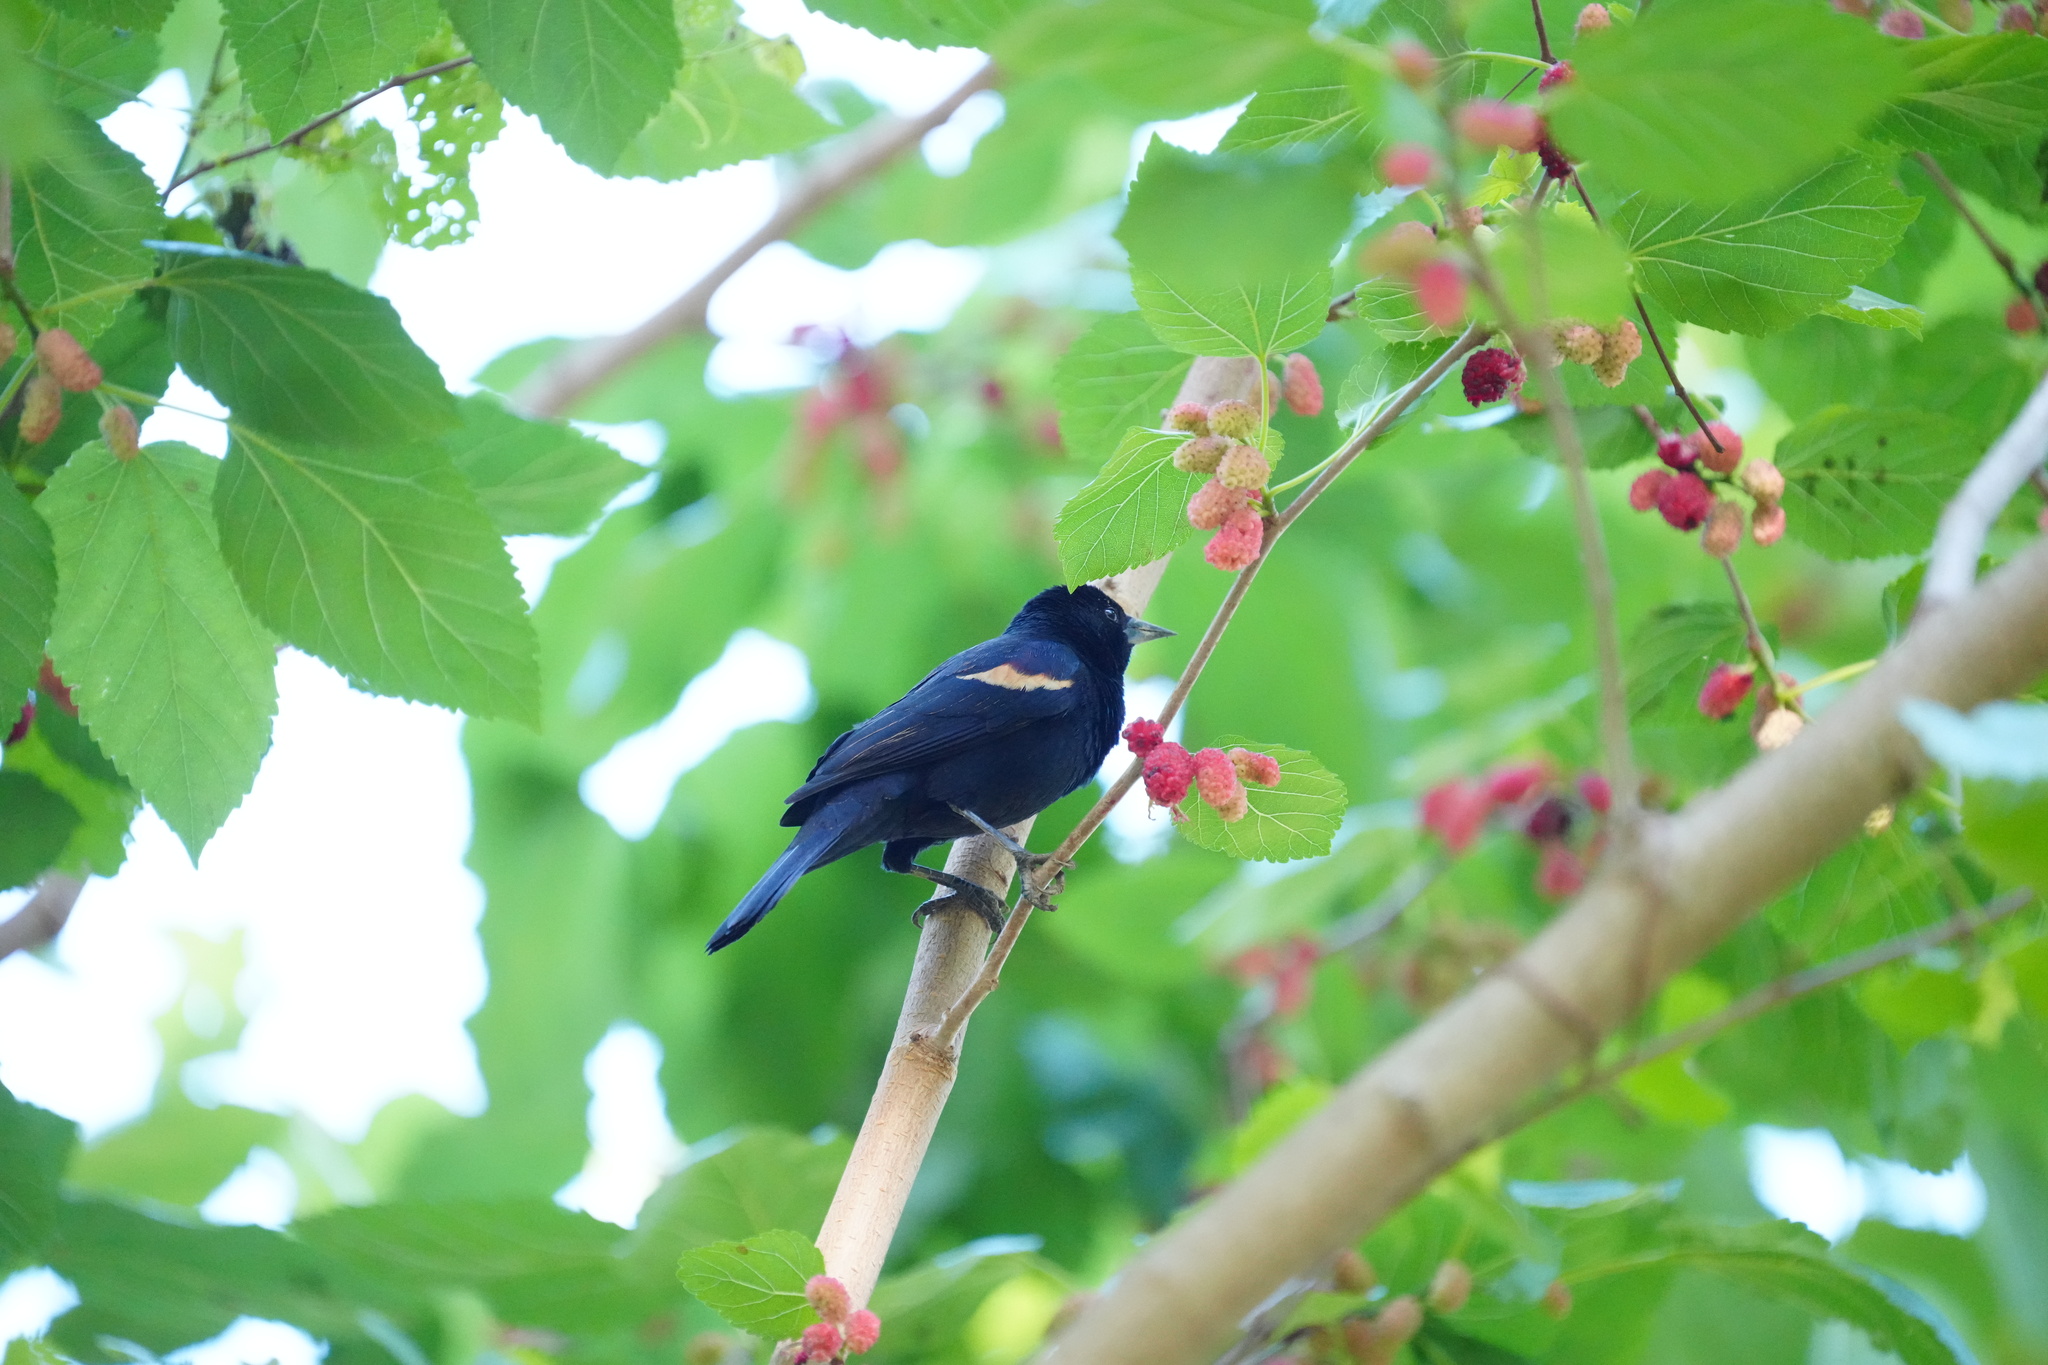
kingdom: Animalia
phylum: Chordata
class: Aves
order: Passeriformes
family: Icteridae
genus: Agelaius
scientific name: Agelaius phoeniceus
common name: Red-winged blackbird
